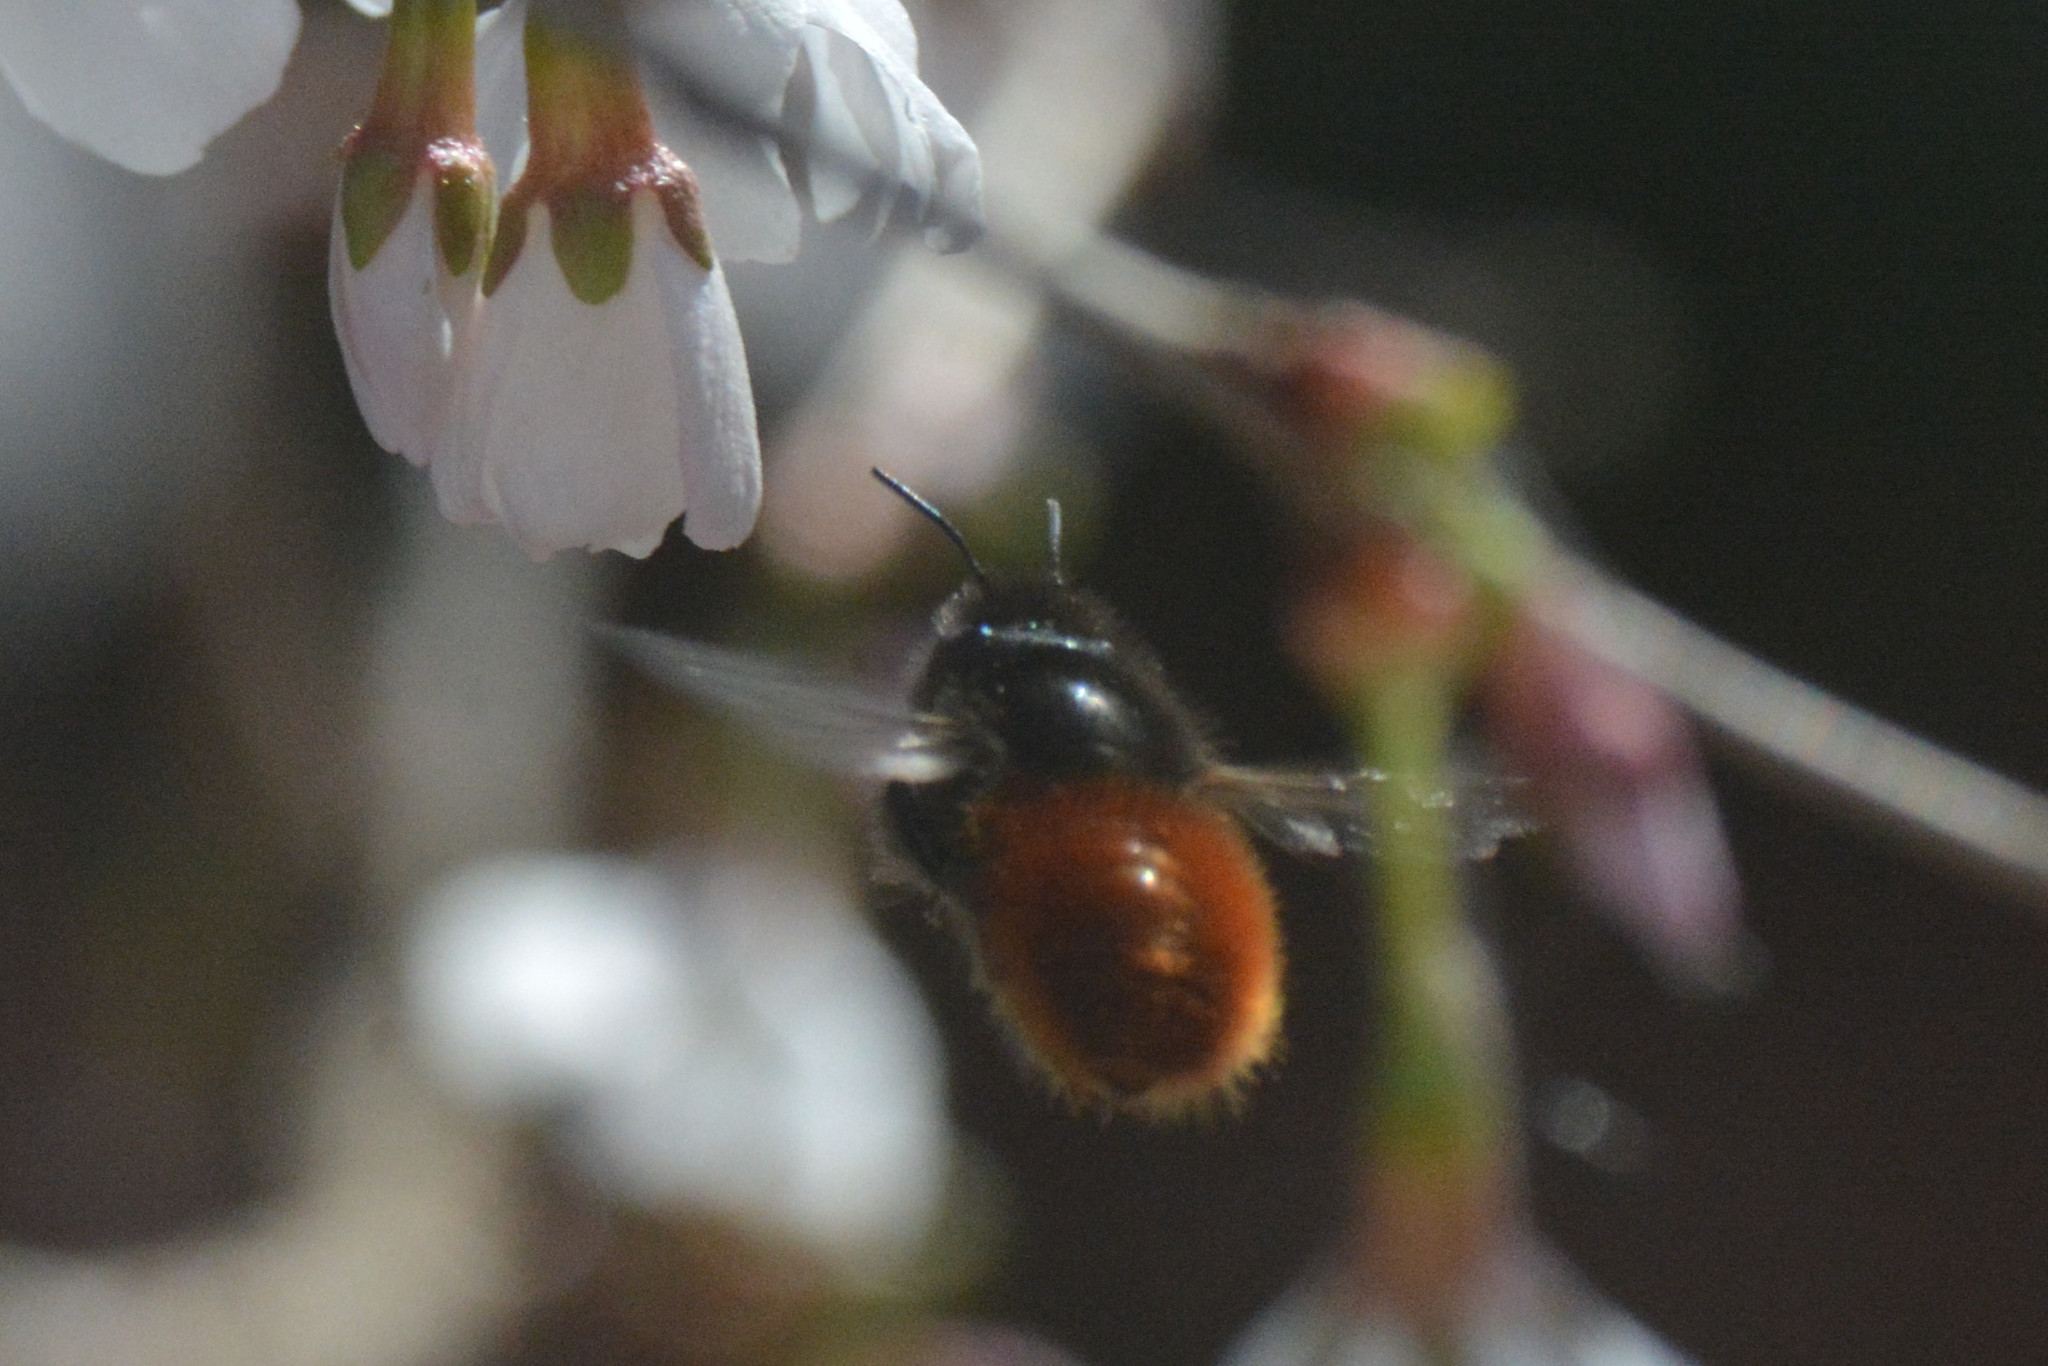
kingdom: Animalia
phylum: Arthropoda
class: Insecta
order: Hymenoptera
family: Megachilidae
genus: Osmia
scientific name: Osmia cornuta
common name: Mason bee
